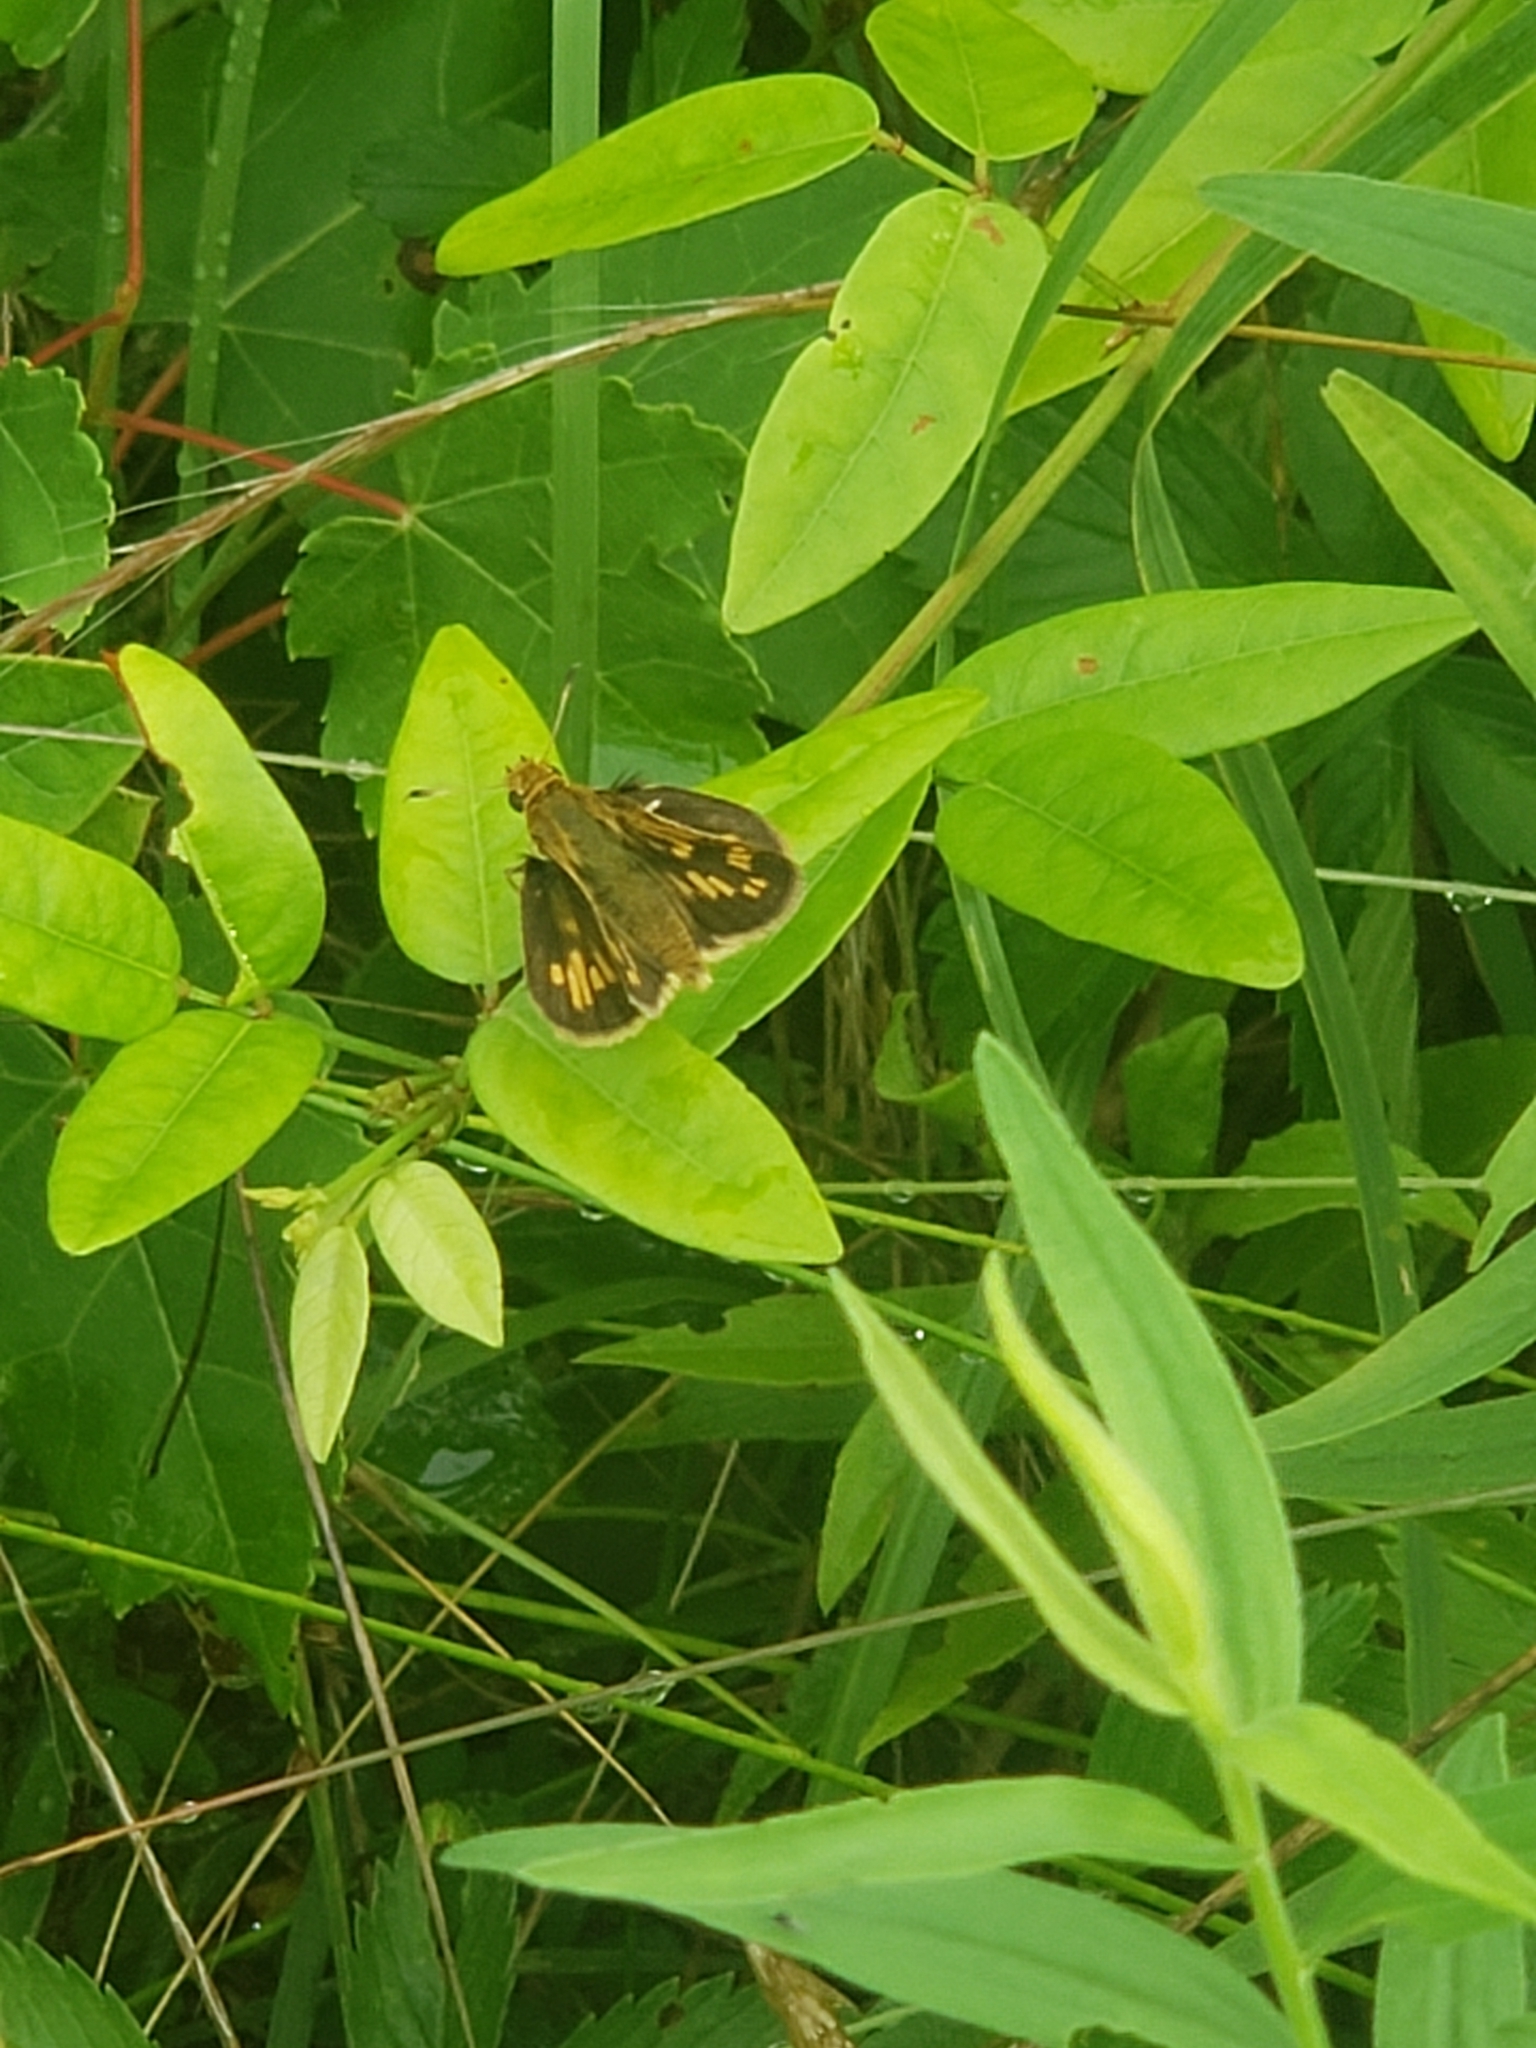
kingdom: Animalia
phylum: Arthropoda
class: Insecta
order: Lepidoptera
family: Hesperiidae
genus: Polites
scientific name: Polites coras
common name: Peck's skipper
